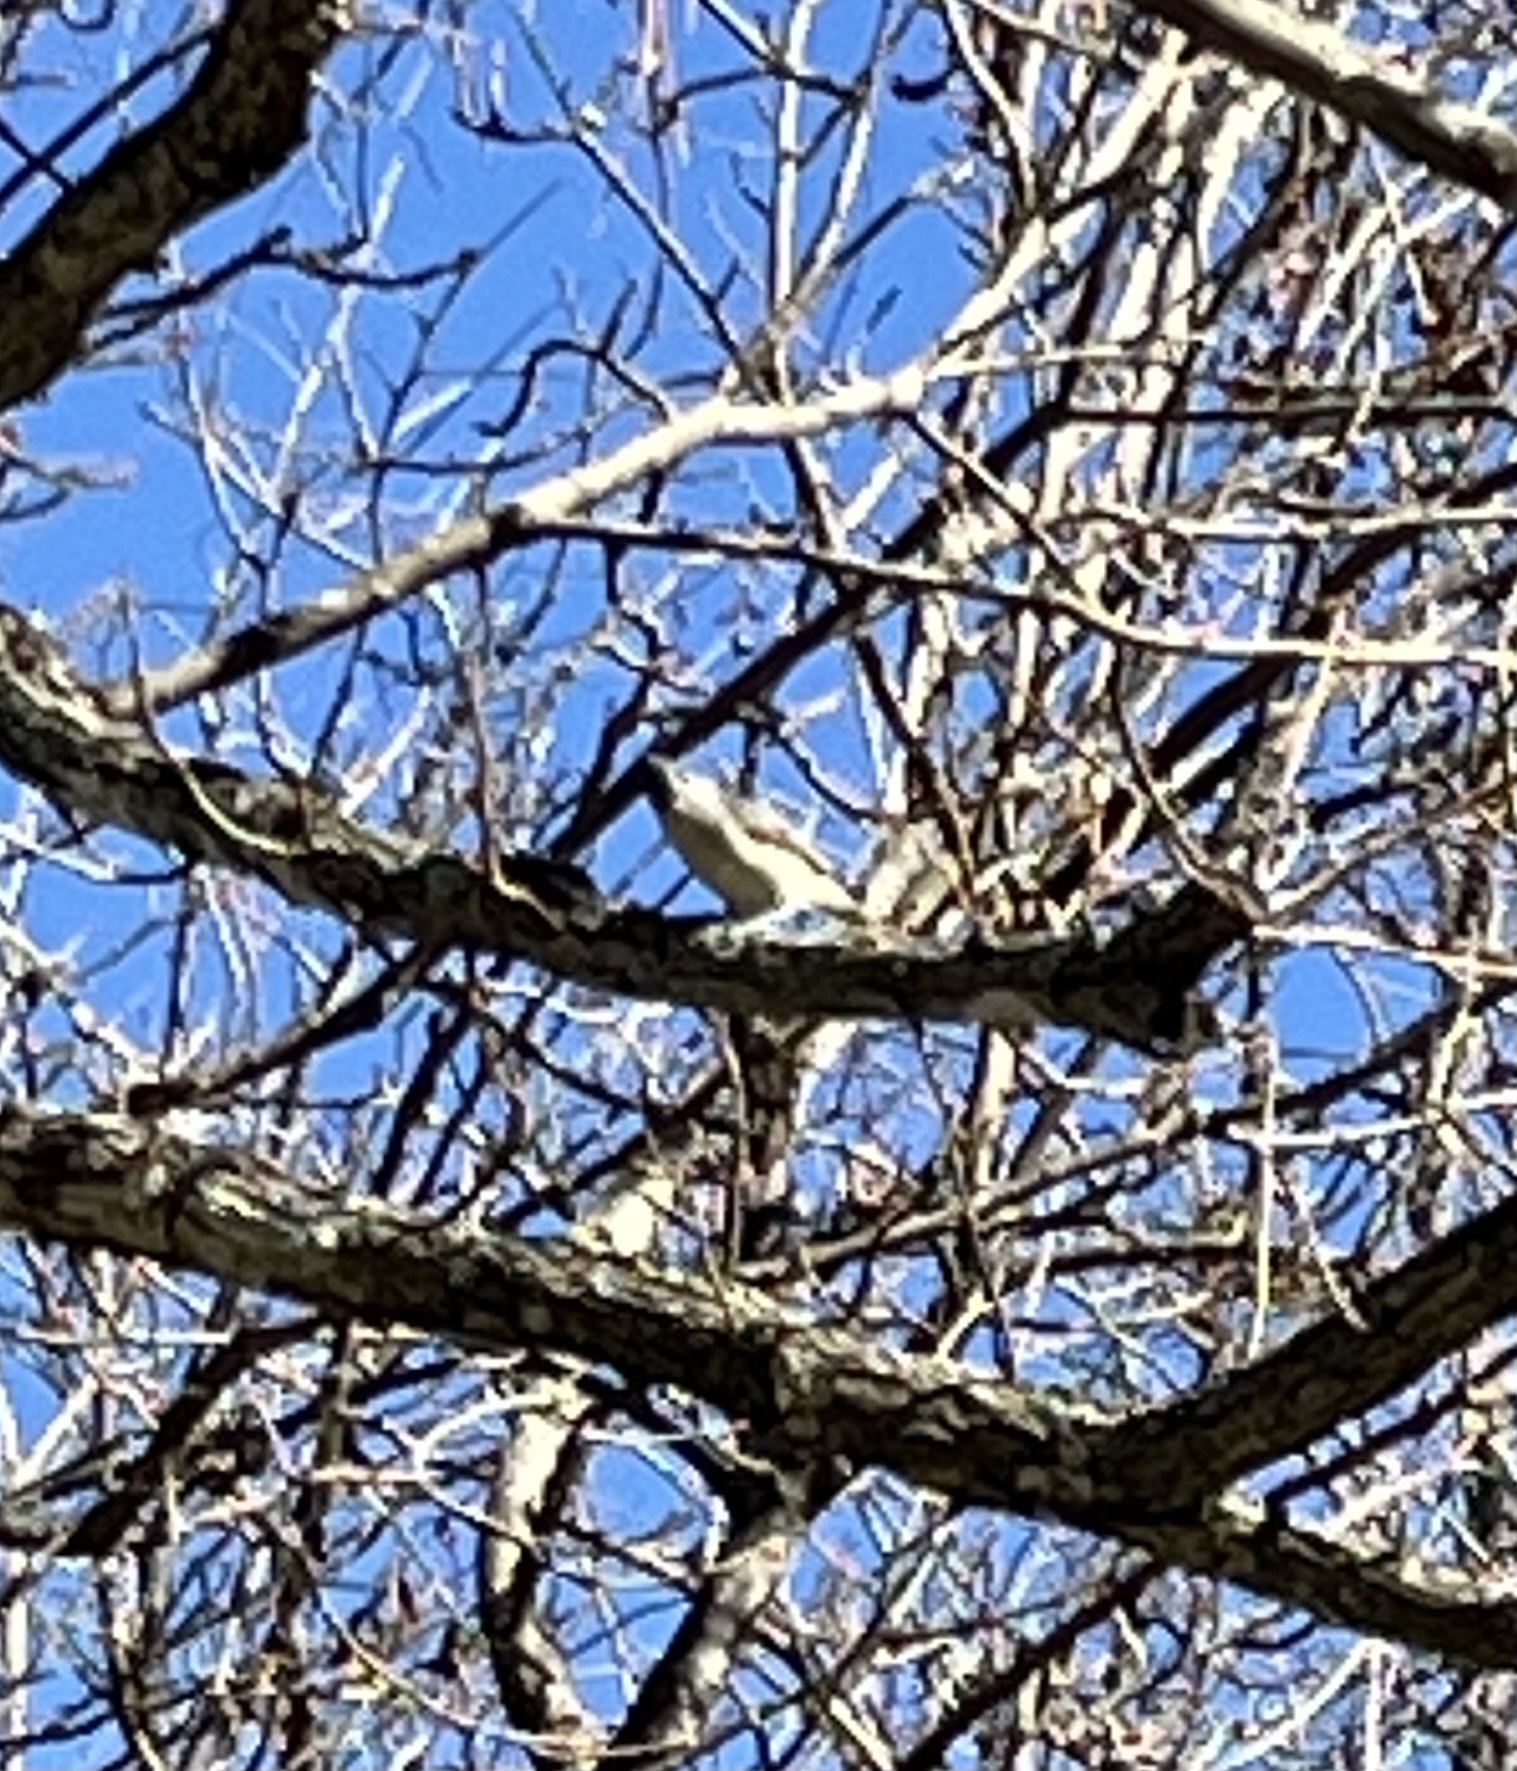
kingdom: Animalia
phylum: Chordata
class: Aves
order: Passeriformes
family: Paridae
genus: Baeolophus
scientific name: Baeolophus bicolor
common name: Tufted titmouse
